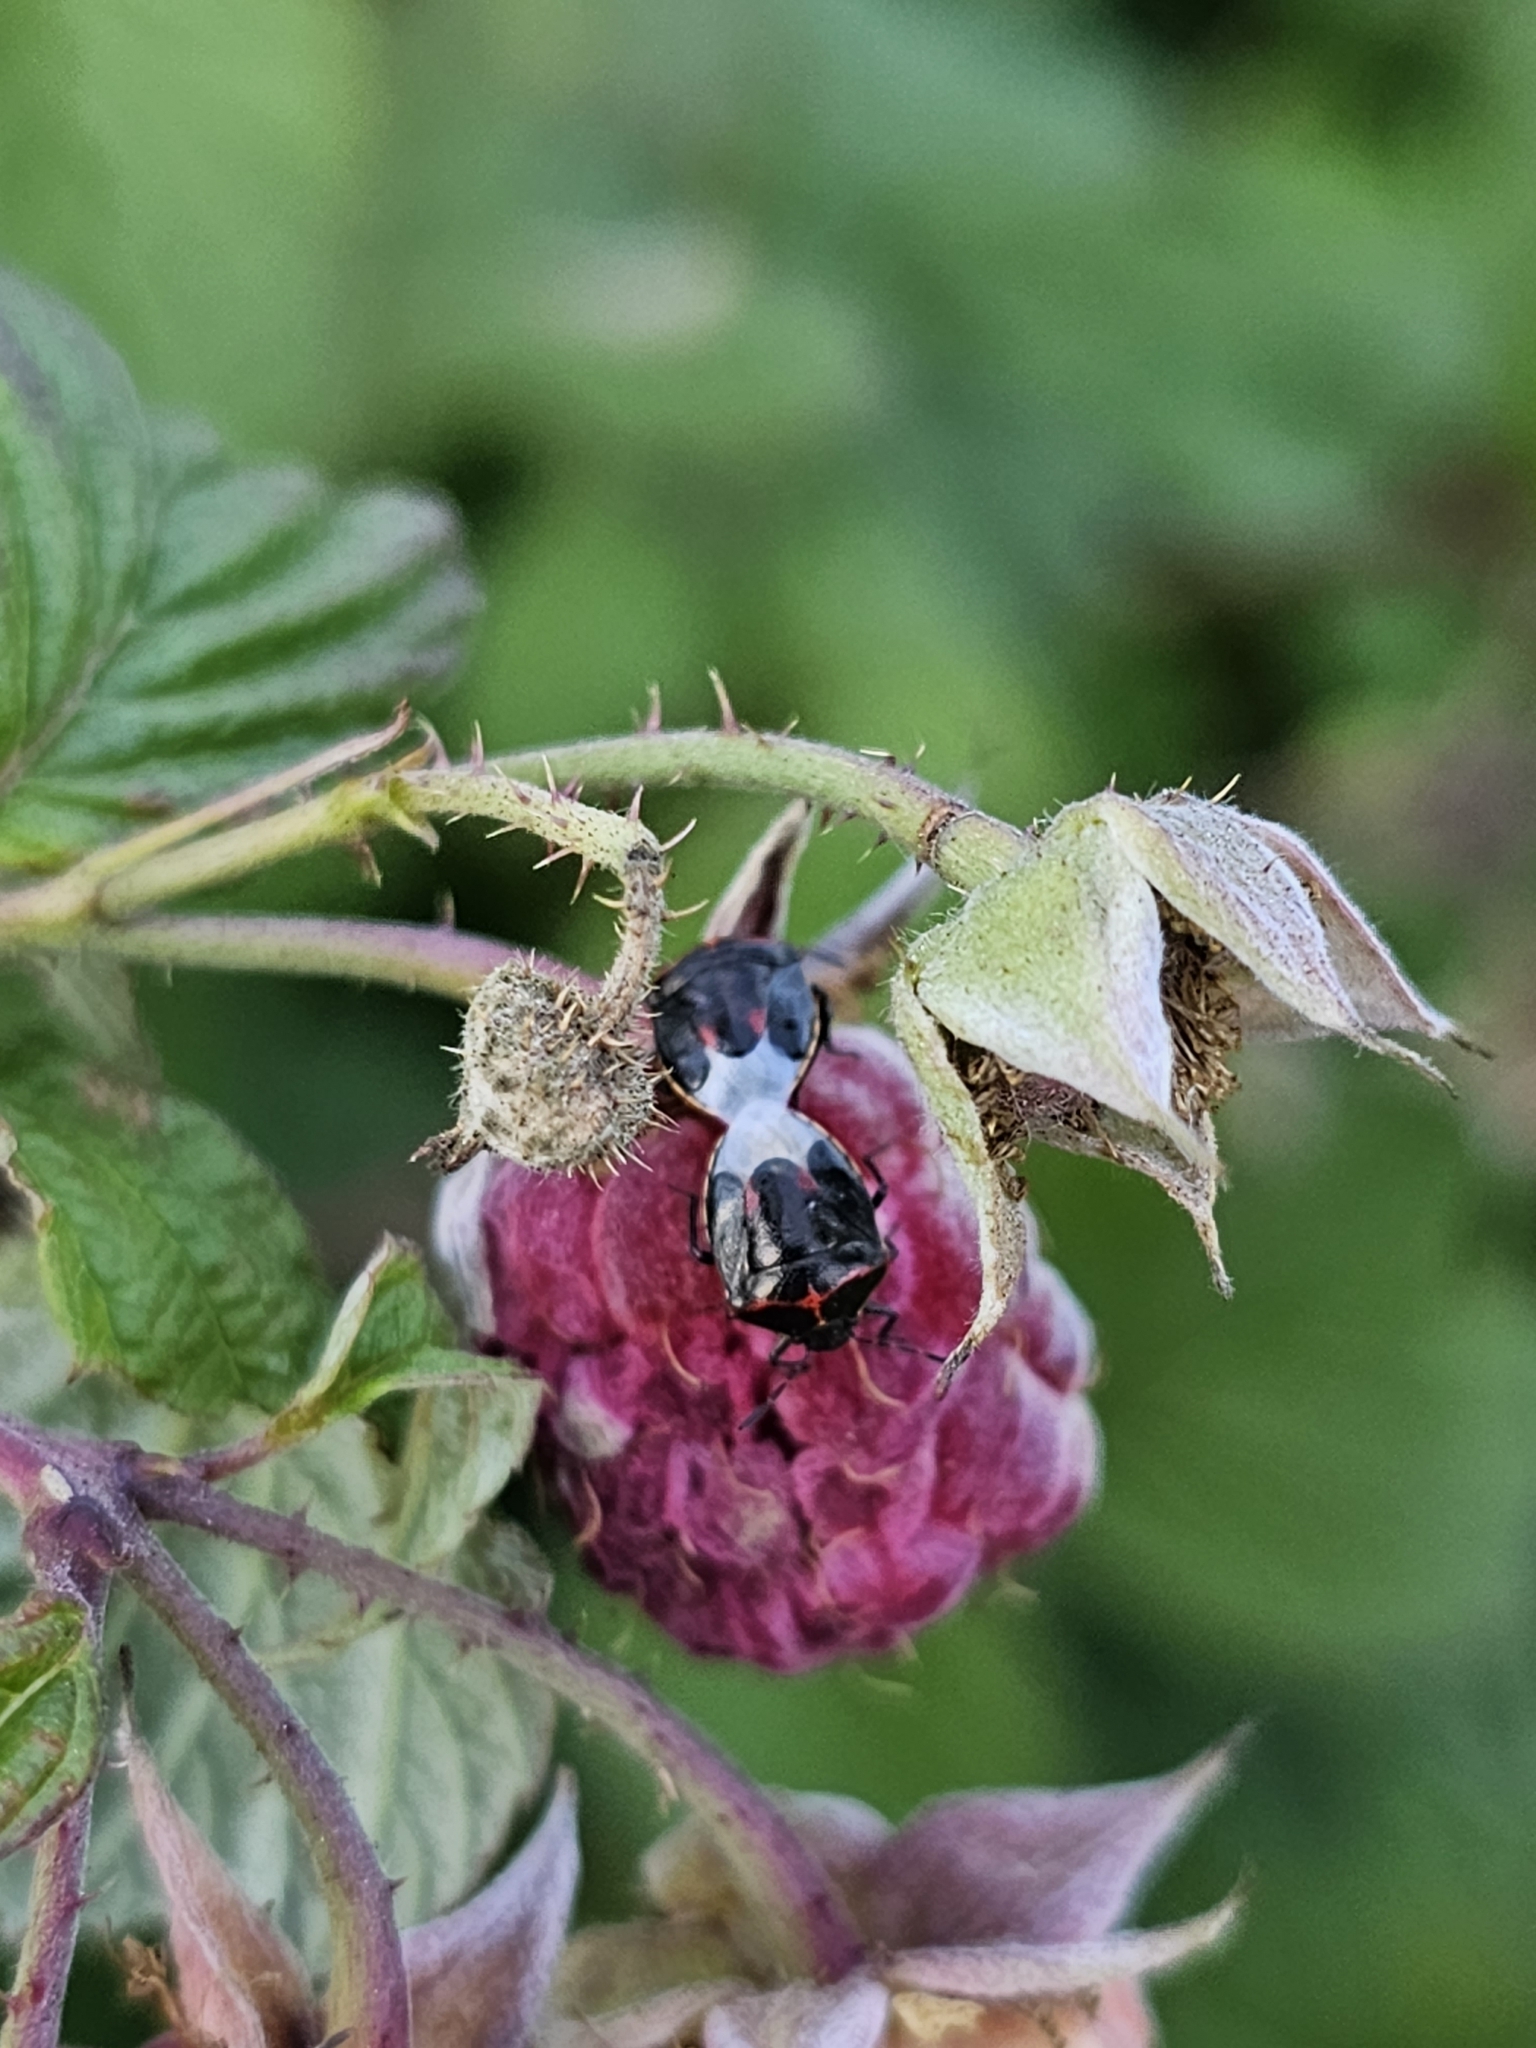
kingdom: Animalia
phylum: Arthropoda
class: Insecta
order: Hemiptera
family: Pentatomidae
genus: Cosmopepla
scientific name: Cosmopepla lintneriana
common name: Twice-stabbed stink bug
